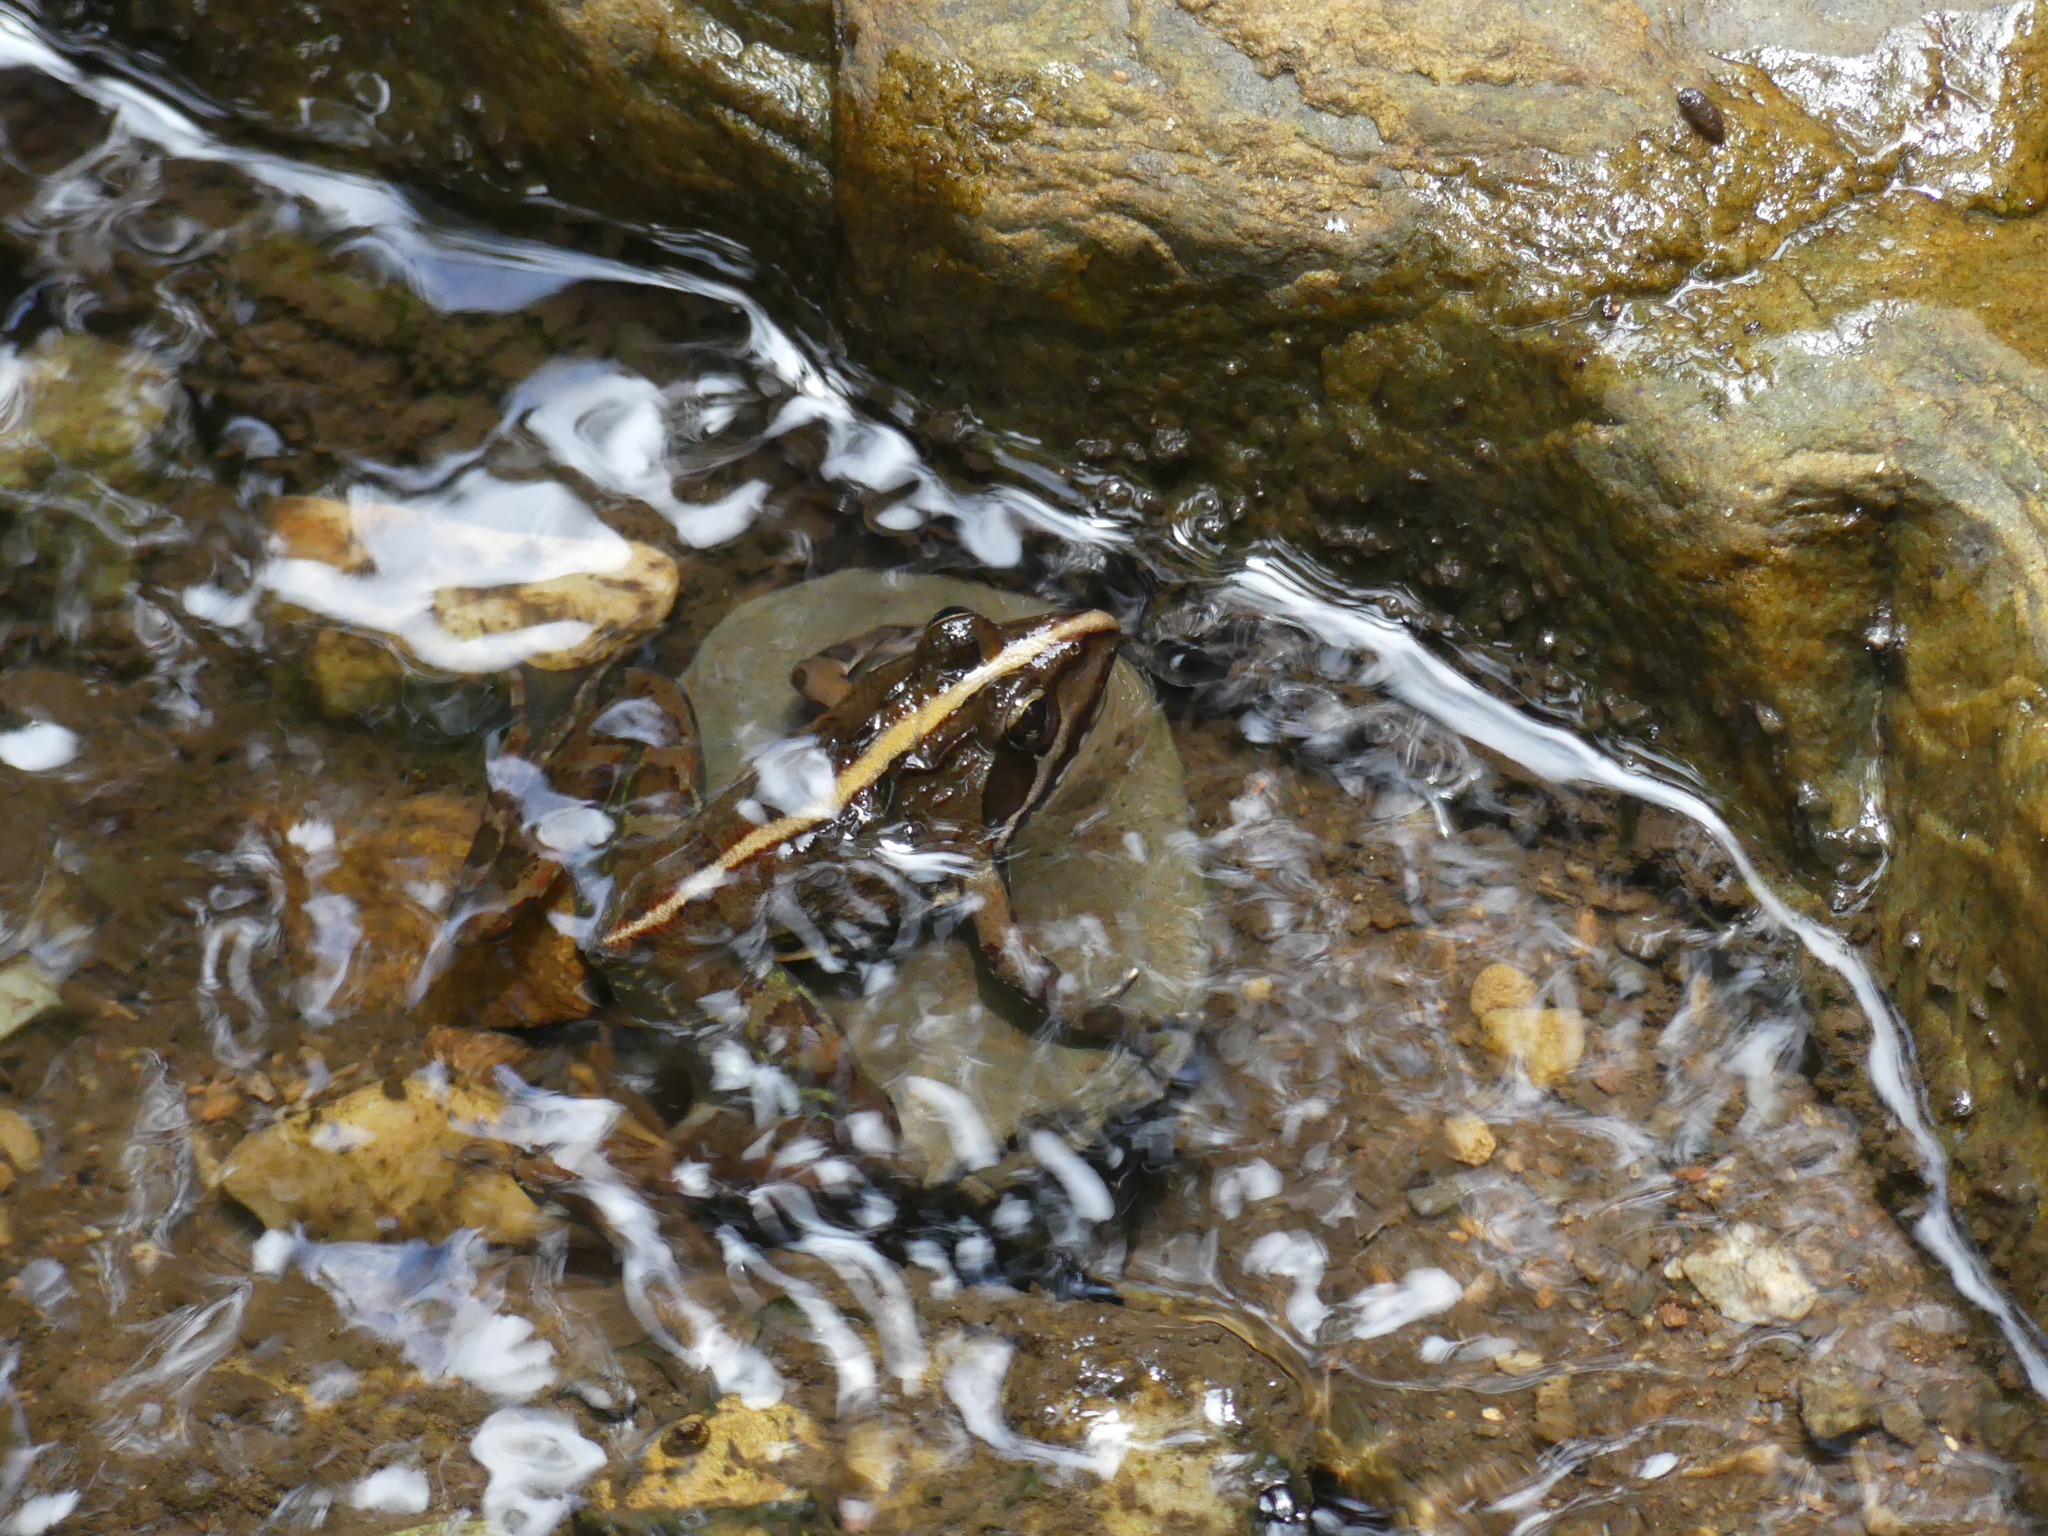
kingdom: Animalia
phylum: Chordata
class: Amphibia
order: Anura
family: Pyxicephalidae
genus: Amietia
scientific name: Amietia delalandii
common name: Delalande's river frog
